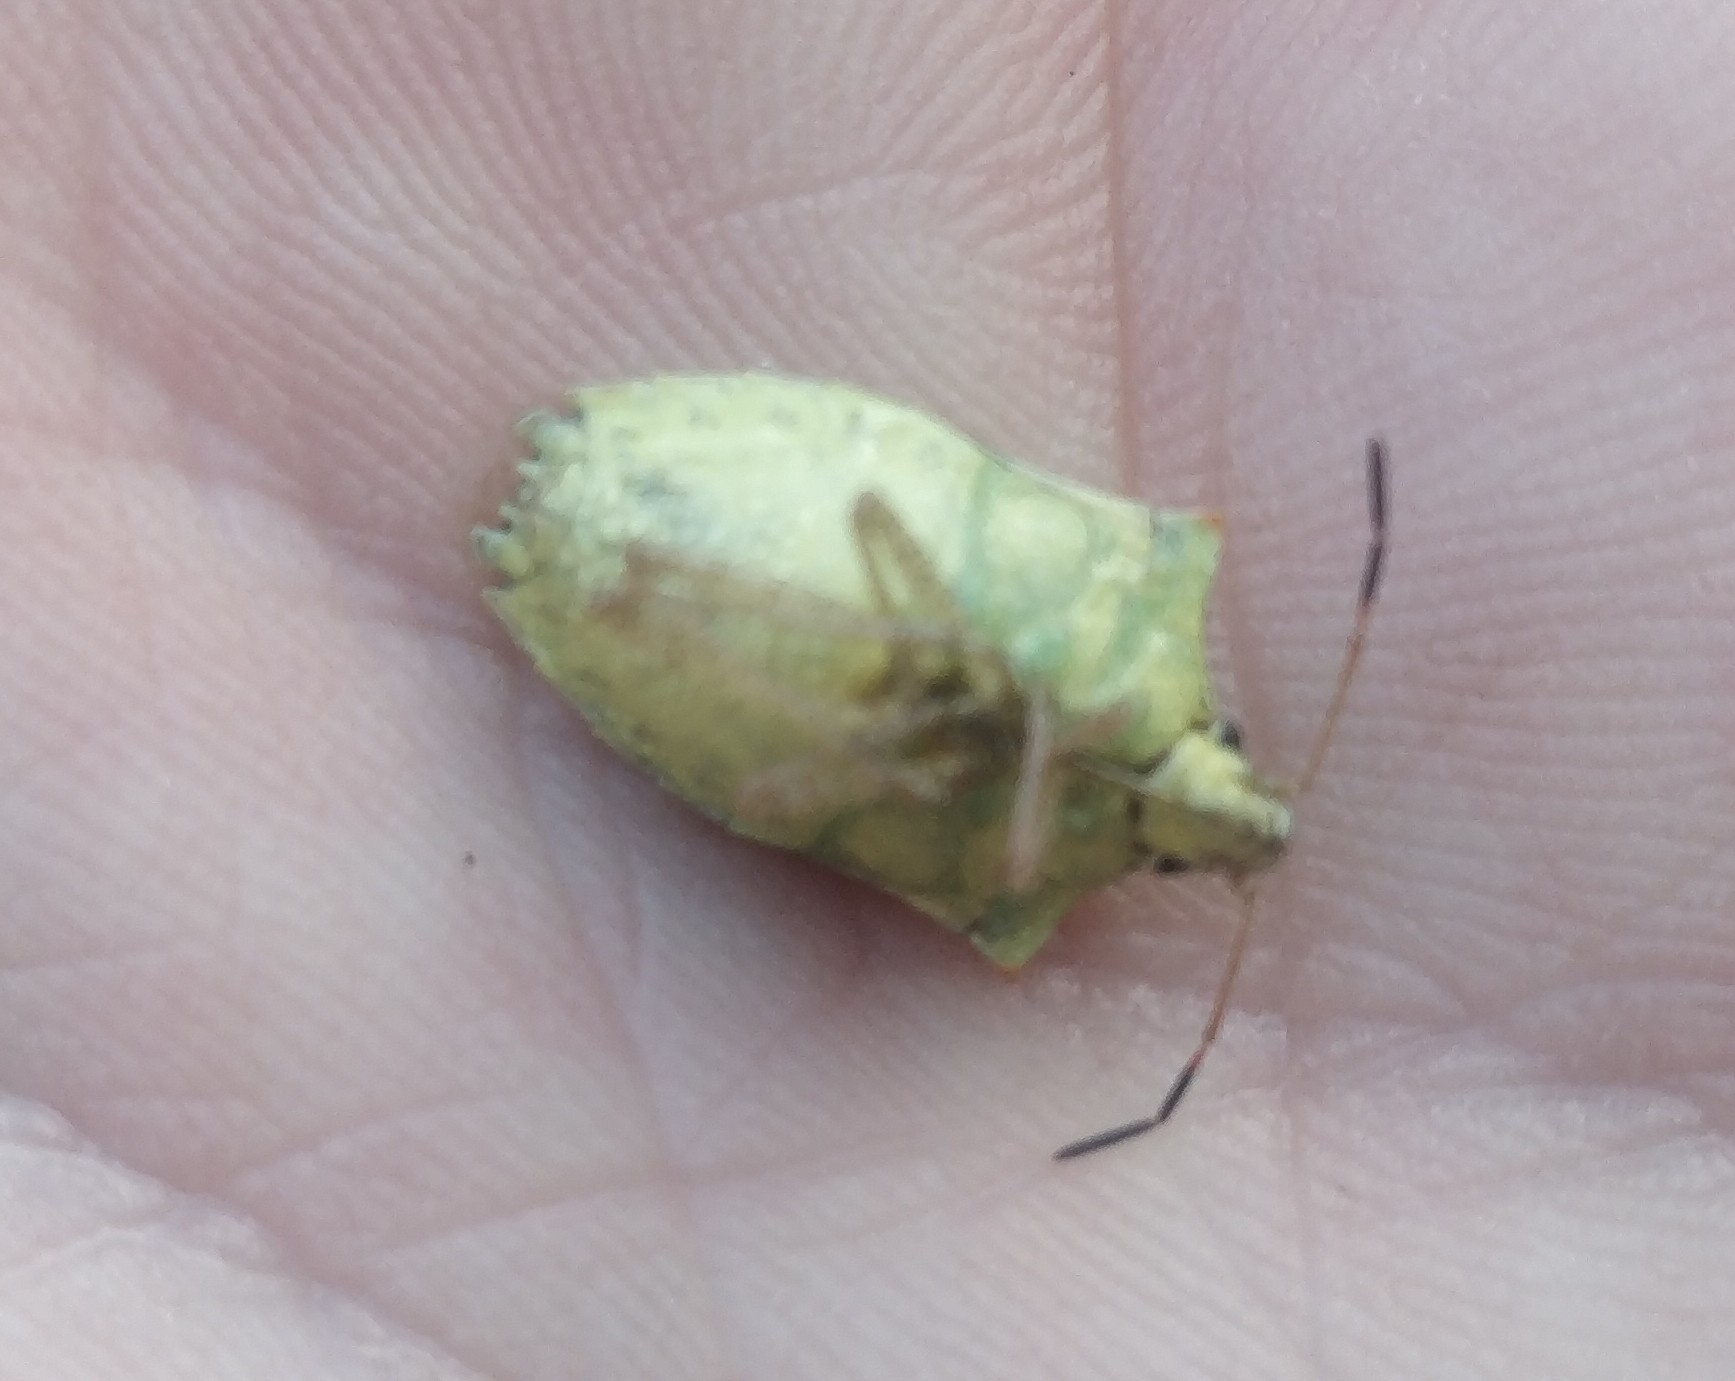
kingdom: Animalia
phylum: Arthropoda
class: Insecta
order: Hemiptera
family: Pentatomidae
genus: Euschistus
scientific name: Euschistus servus
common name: Brown stink bug
